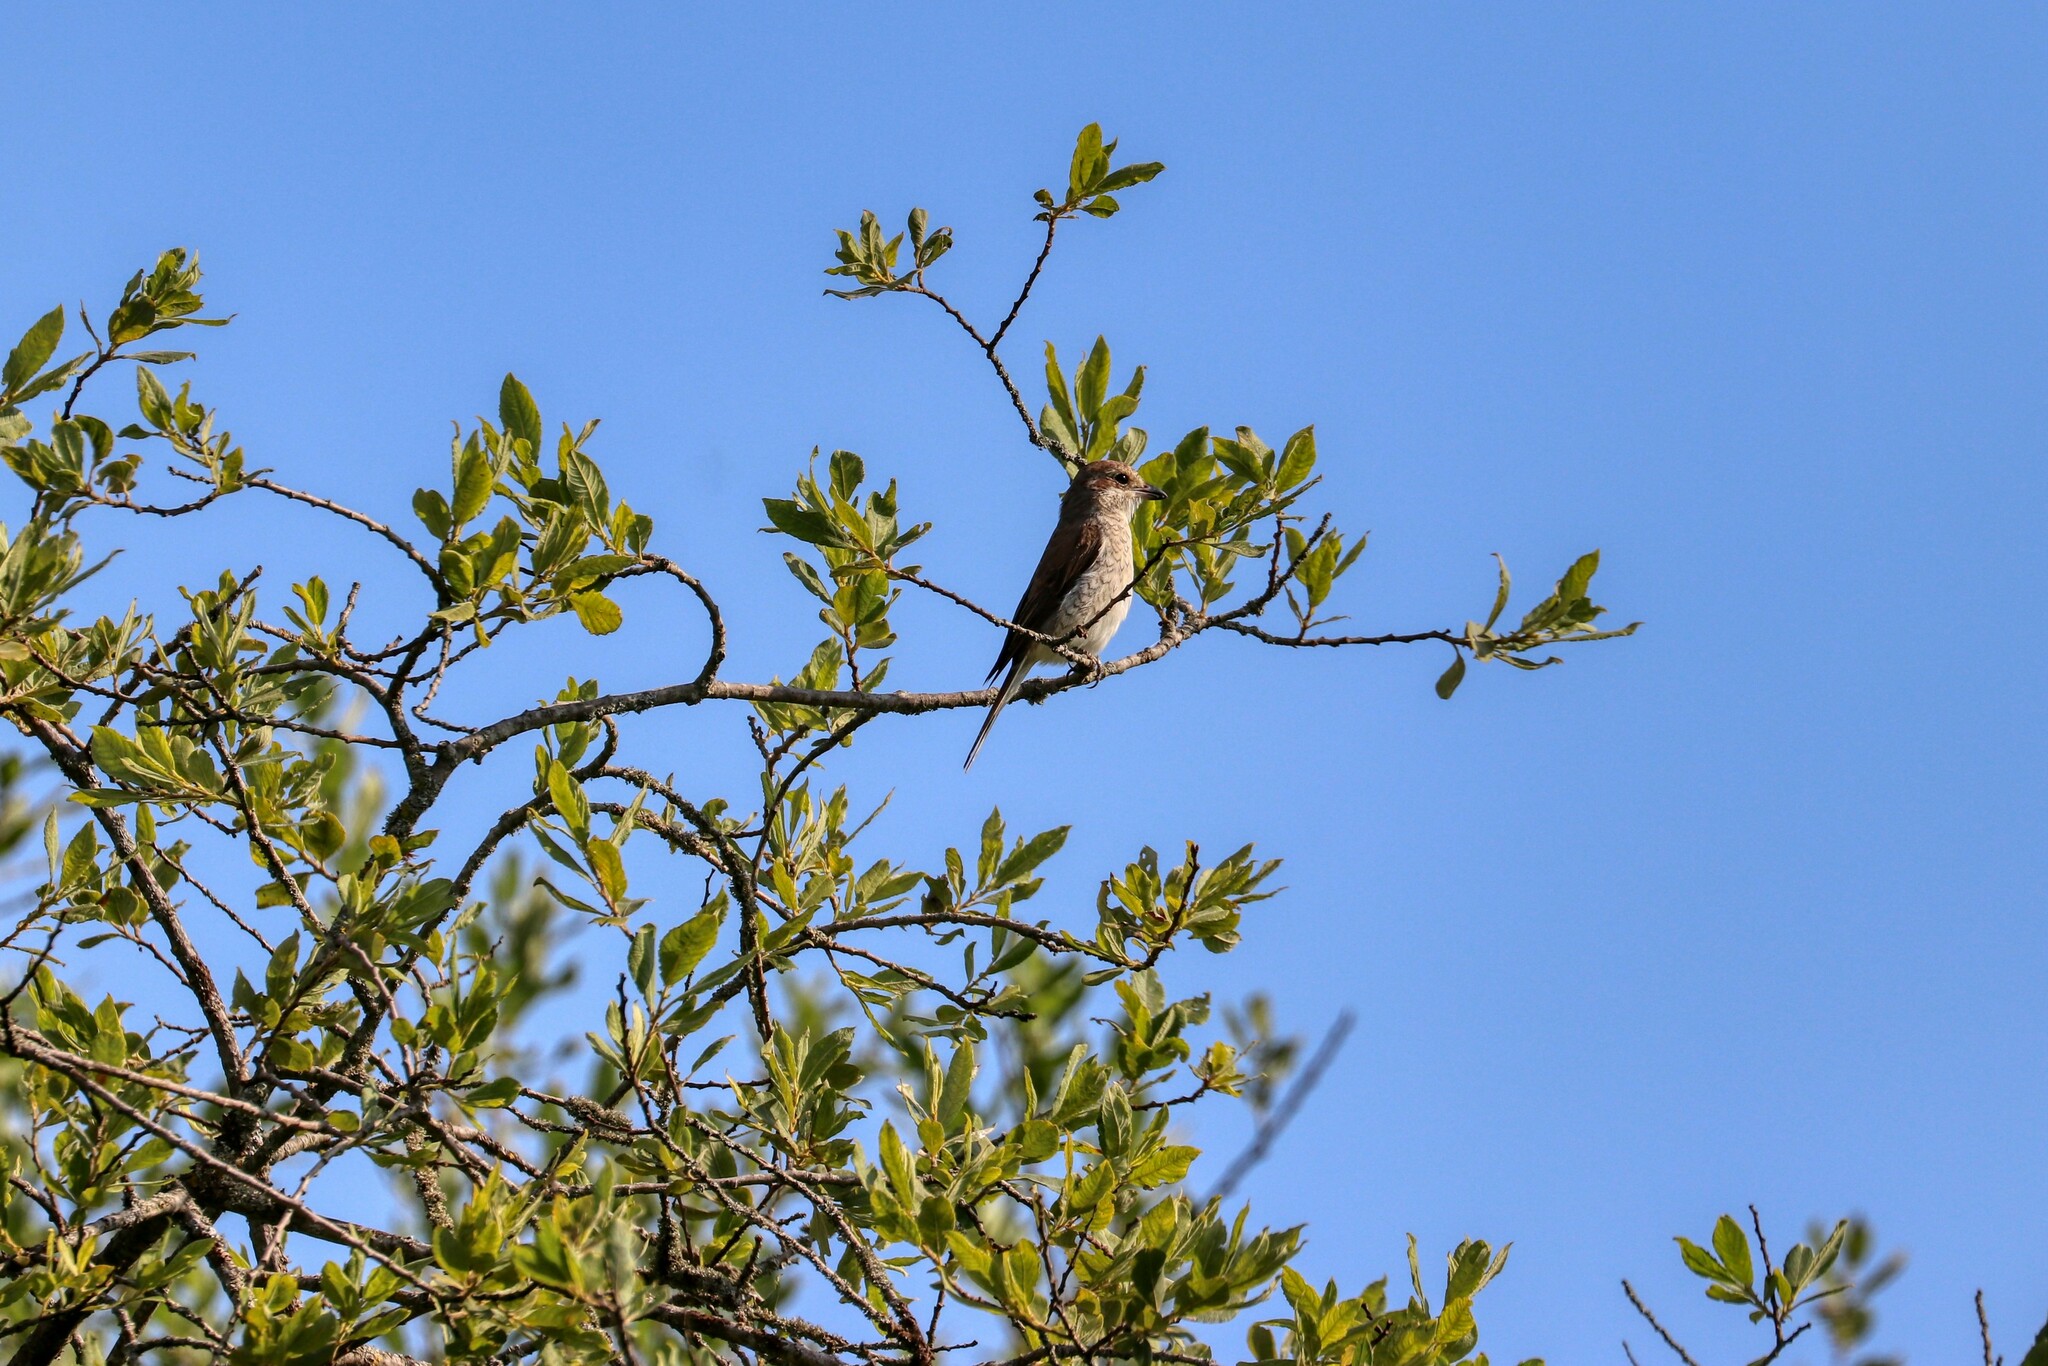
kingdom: Animalia
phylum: Chordata
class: Aves
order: Passeriformes
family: Laniidae
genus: Lanius
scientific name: Lanius collurio
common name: Red-backed shrike
